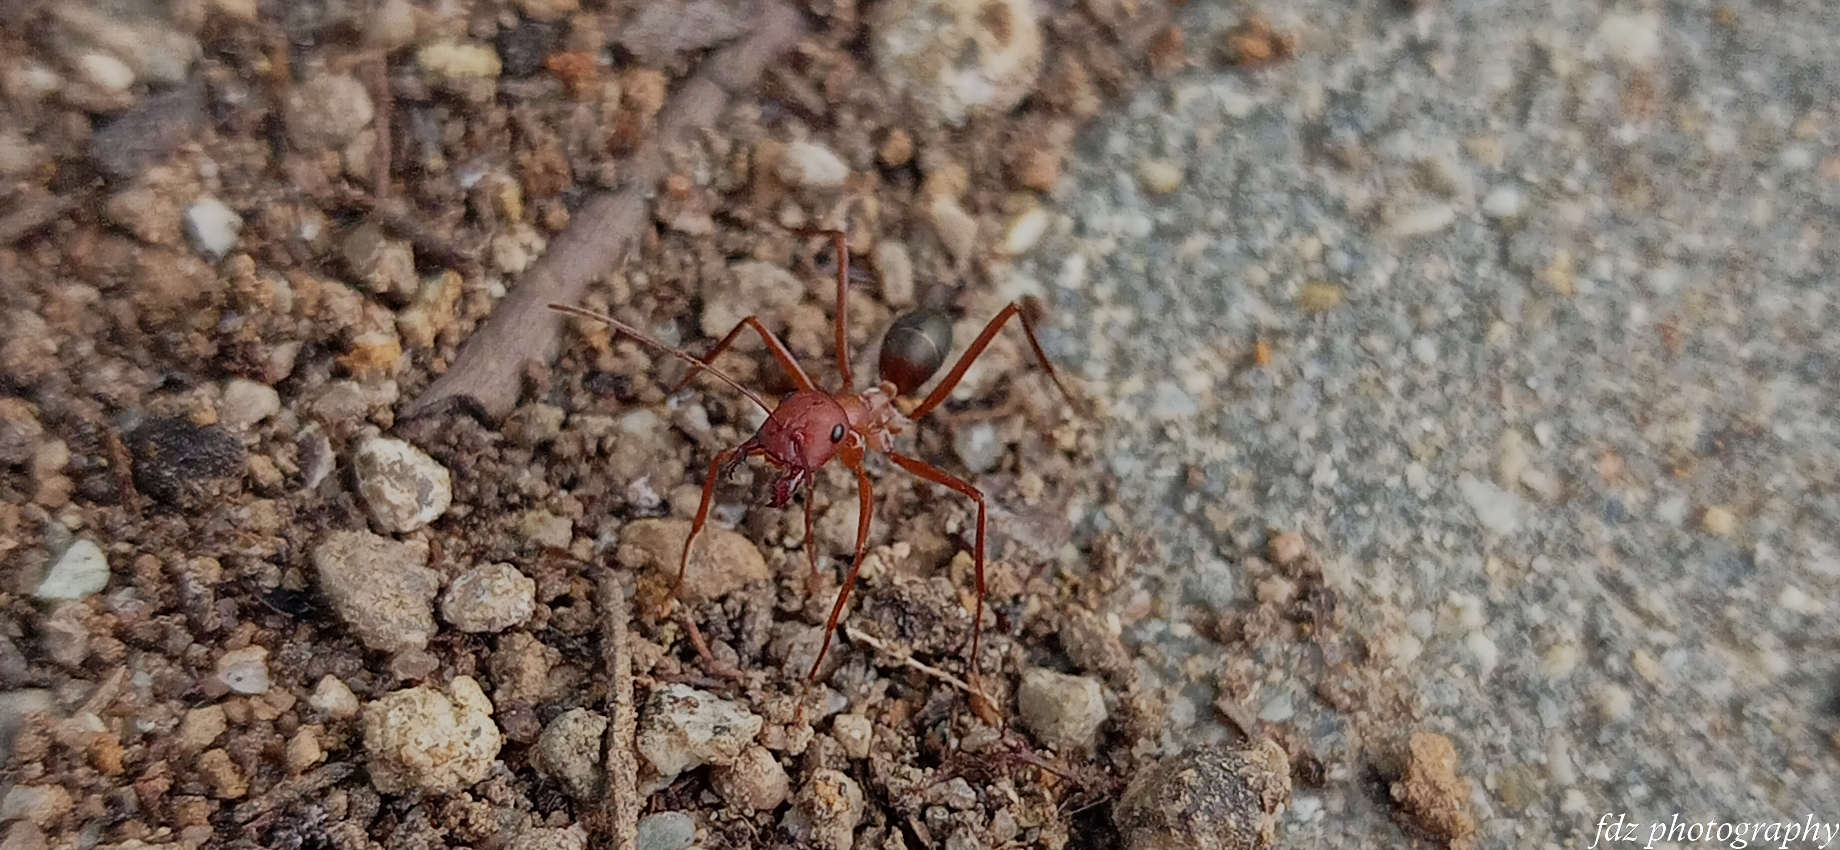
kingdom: Animalia
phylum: Arthropoda
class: Insecta
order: Hymenoptera
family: Formicidae
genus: Cataglyphis
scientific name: Cataglyphis velox
